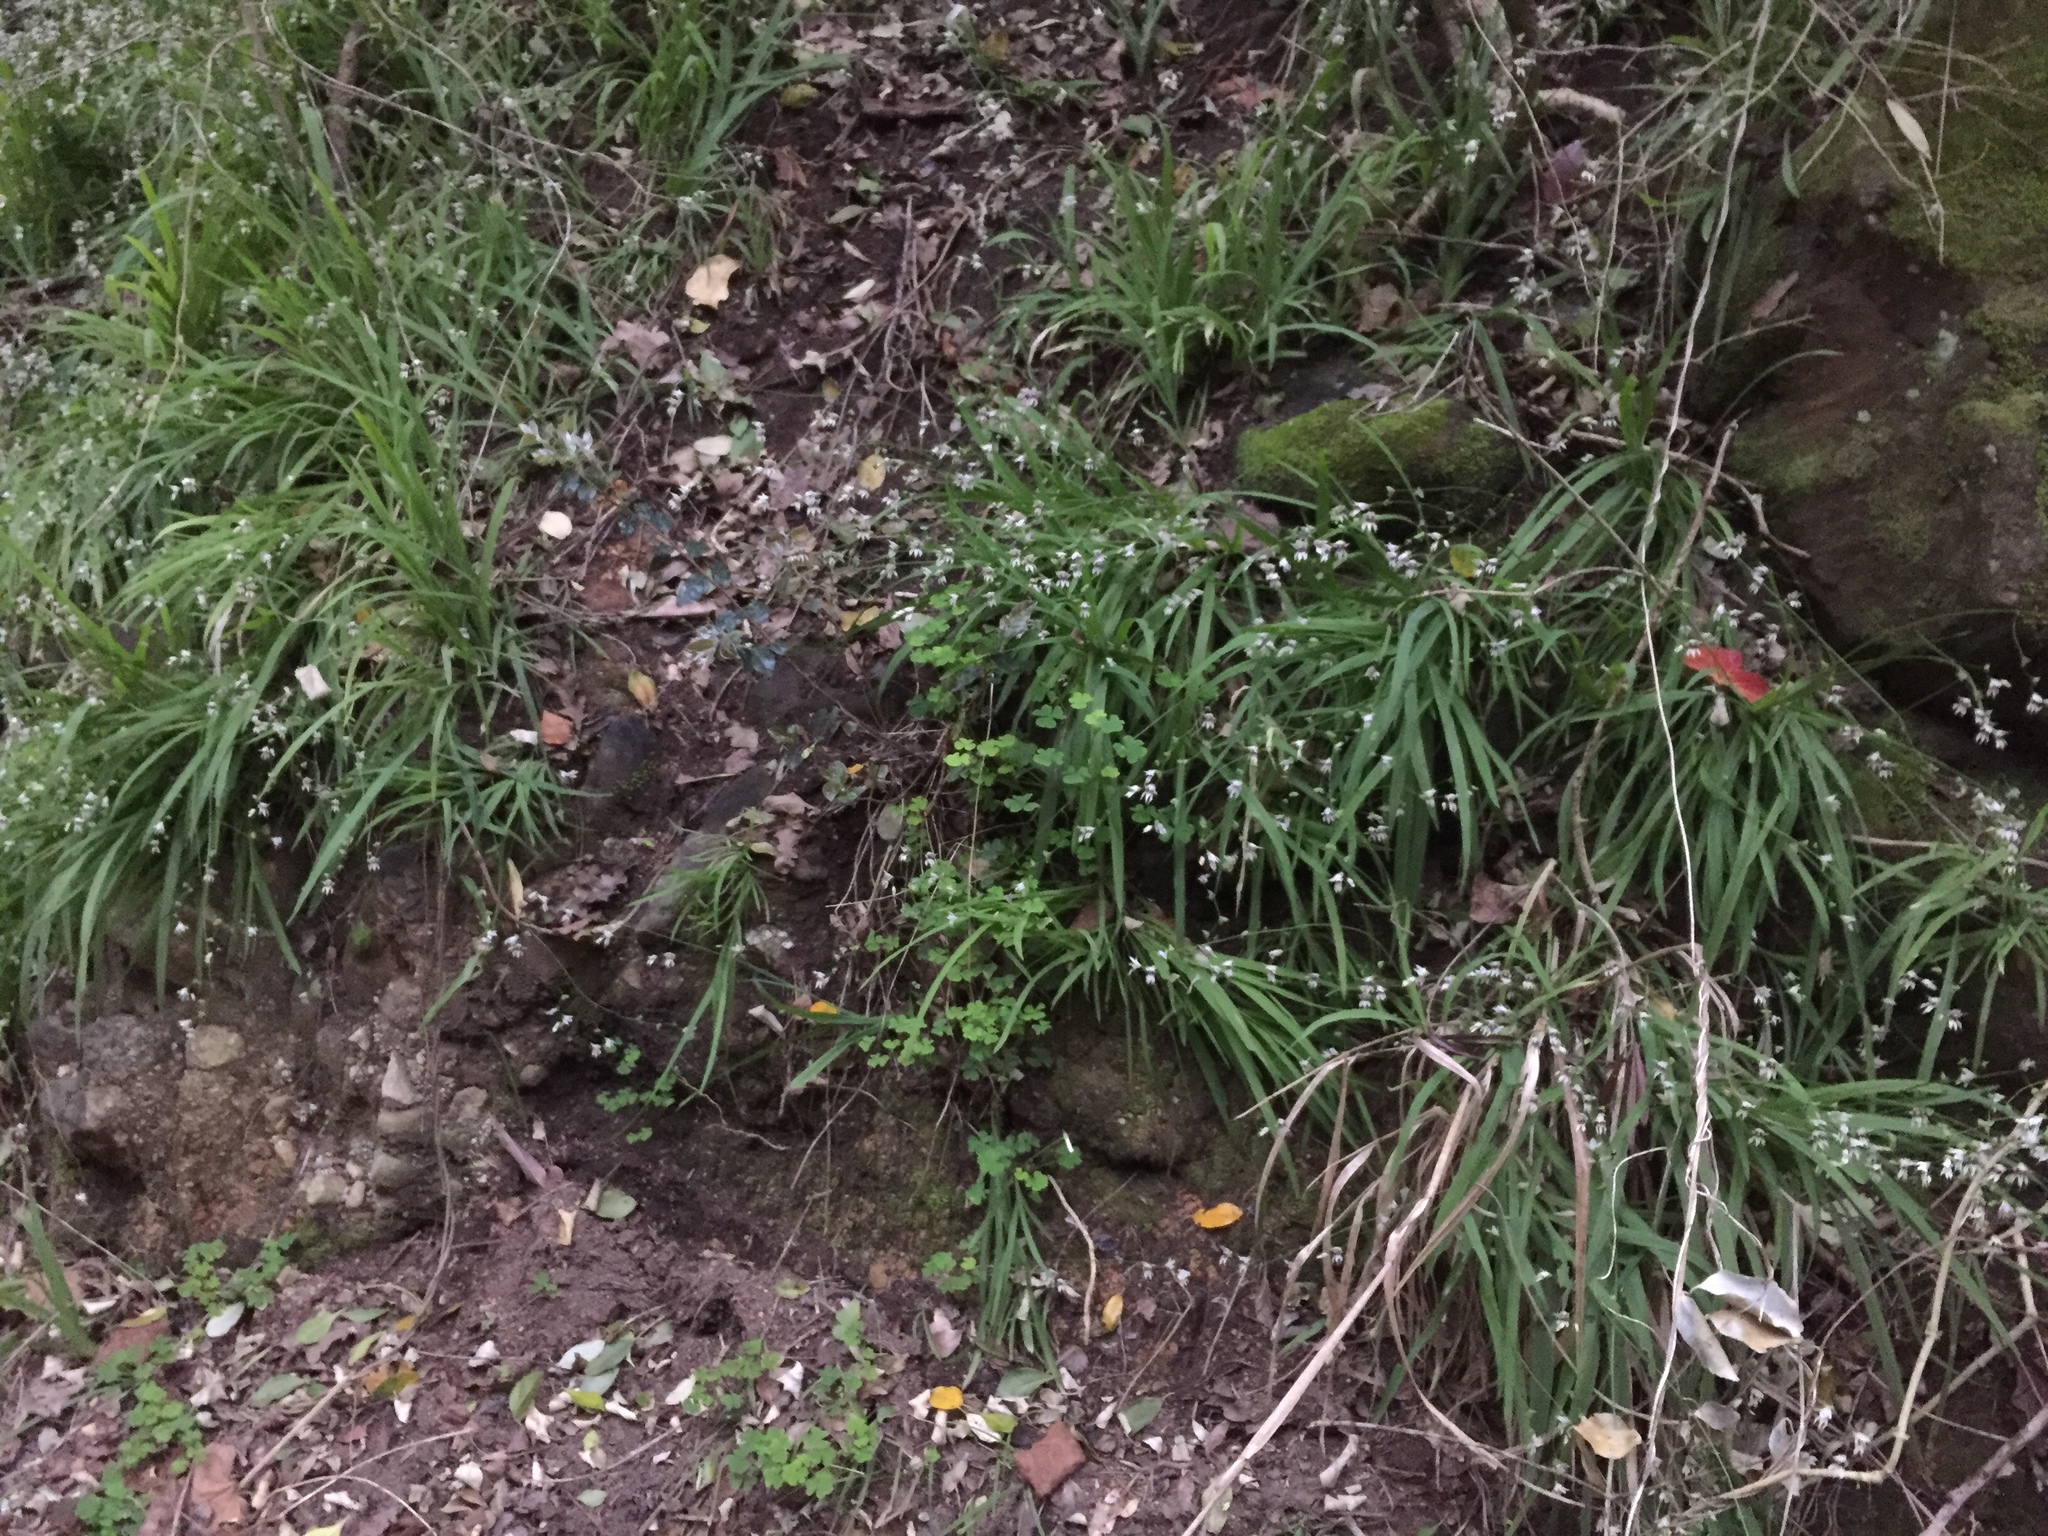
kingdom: Plantae
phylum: Tracheophyta
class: Liliopsida
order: Asparagales
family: Iridaceae
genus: Melasphaerula
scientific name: Melasphaerula graminea
